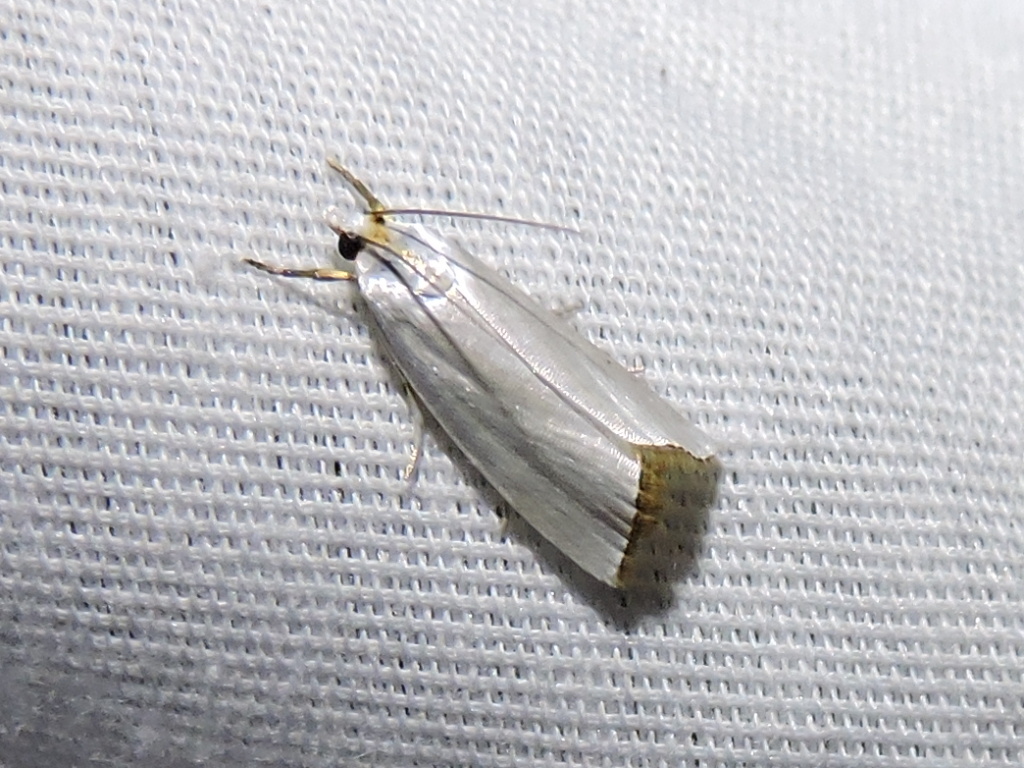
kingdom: Animalia
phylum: Arthropoda
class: Insecta
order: Lepidoptera
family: Crambidae
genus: Argyria
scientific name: Argyria nivalis
